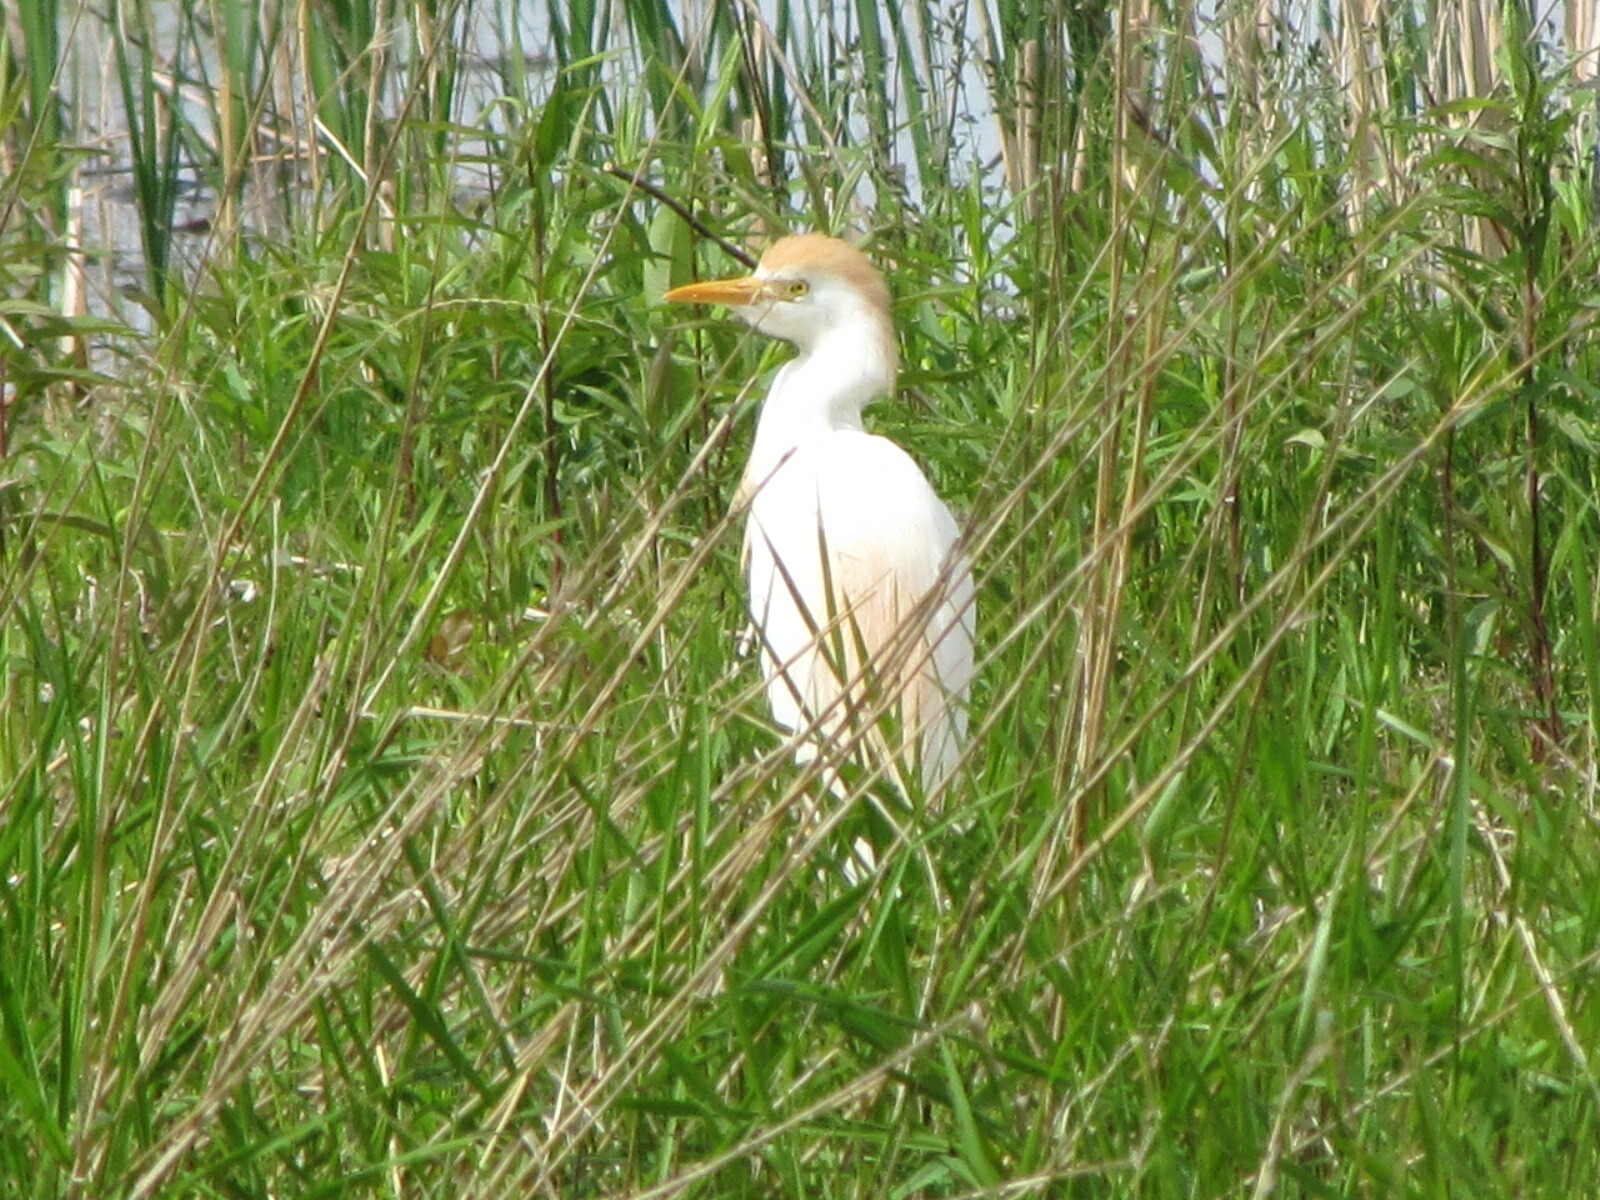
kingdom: Animalia
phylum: Chordata
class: Aves
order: Pelecaniformes
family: Ardeidae
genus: Bubulcus
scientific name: Bubulcus ibis
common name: Cattle egret
